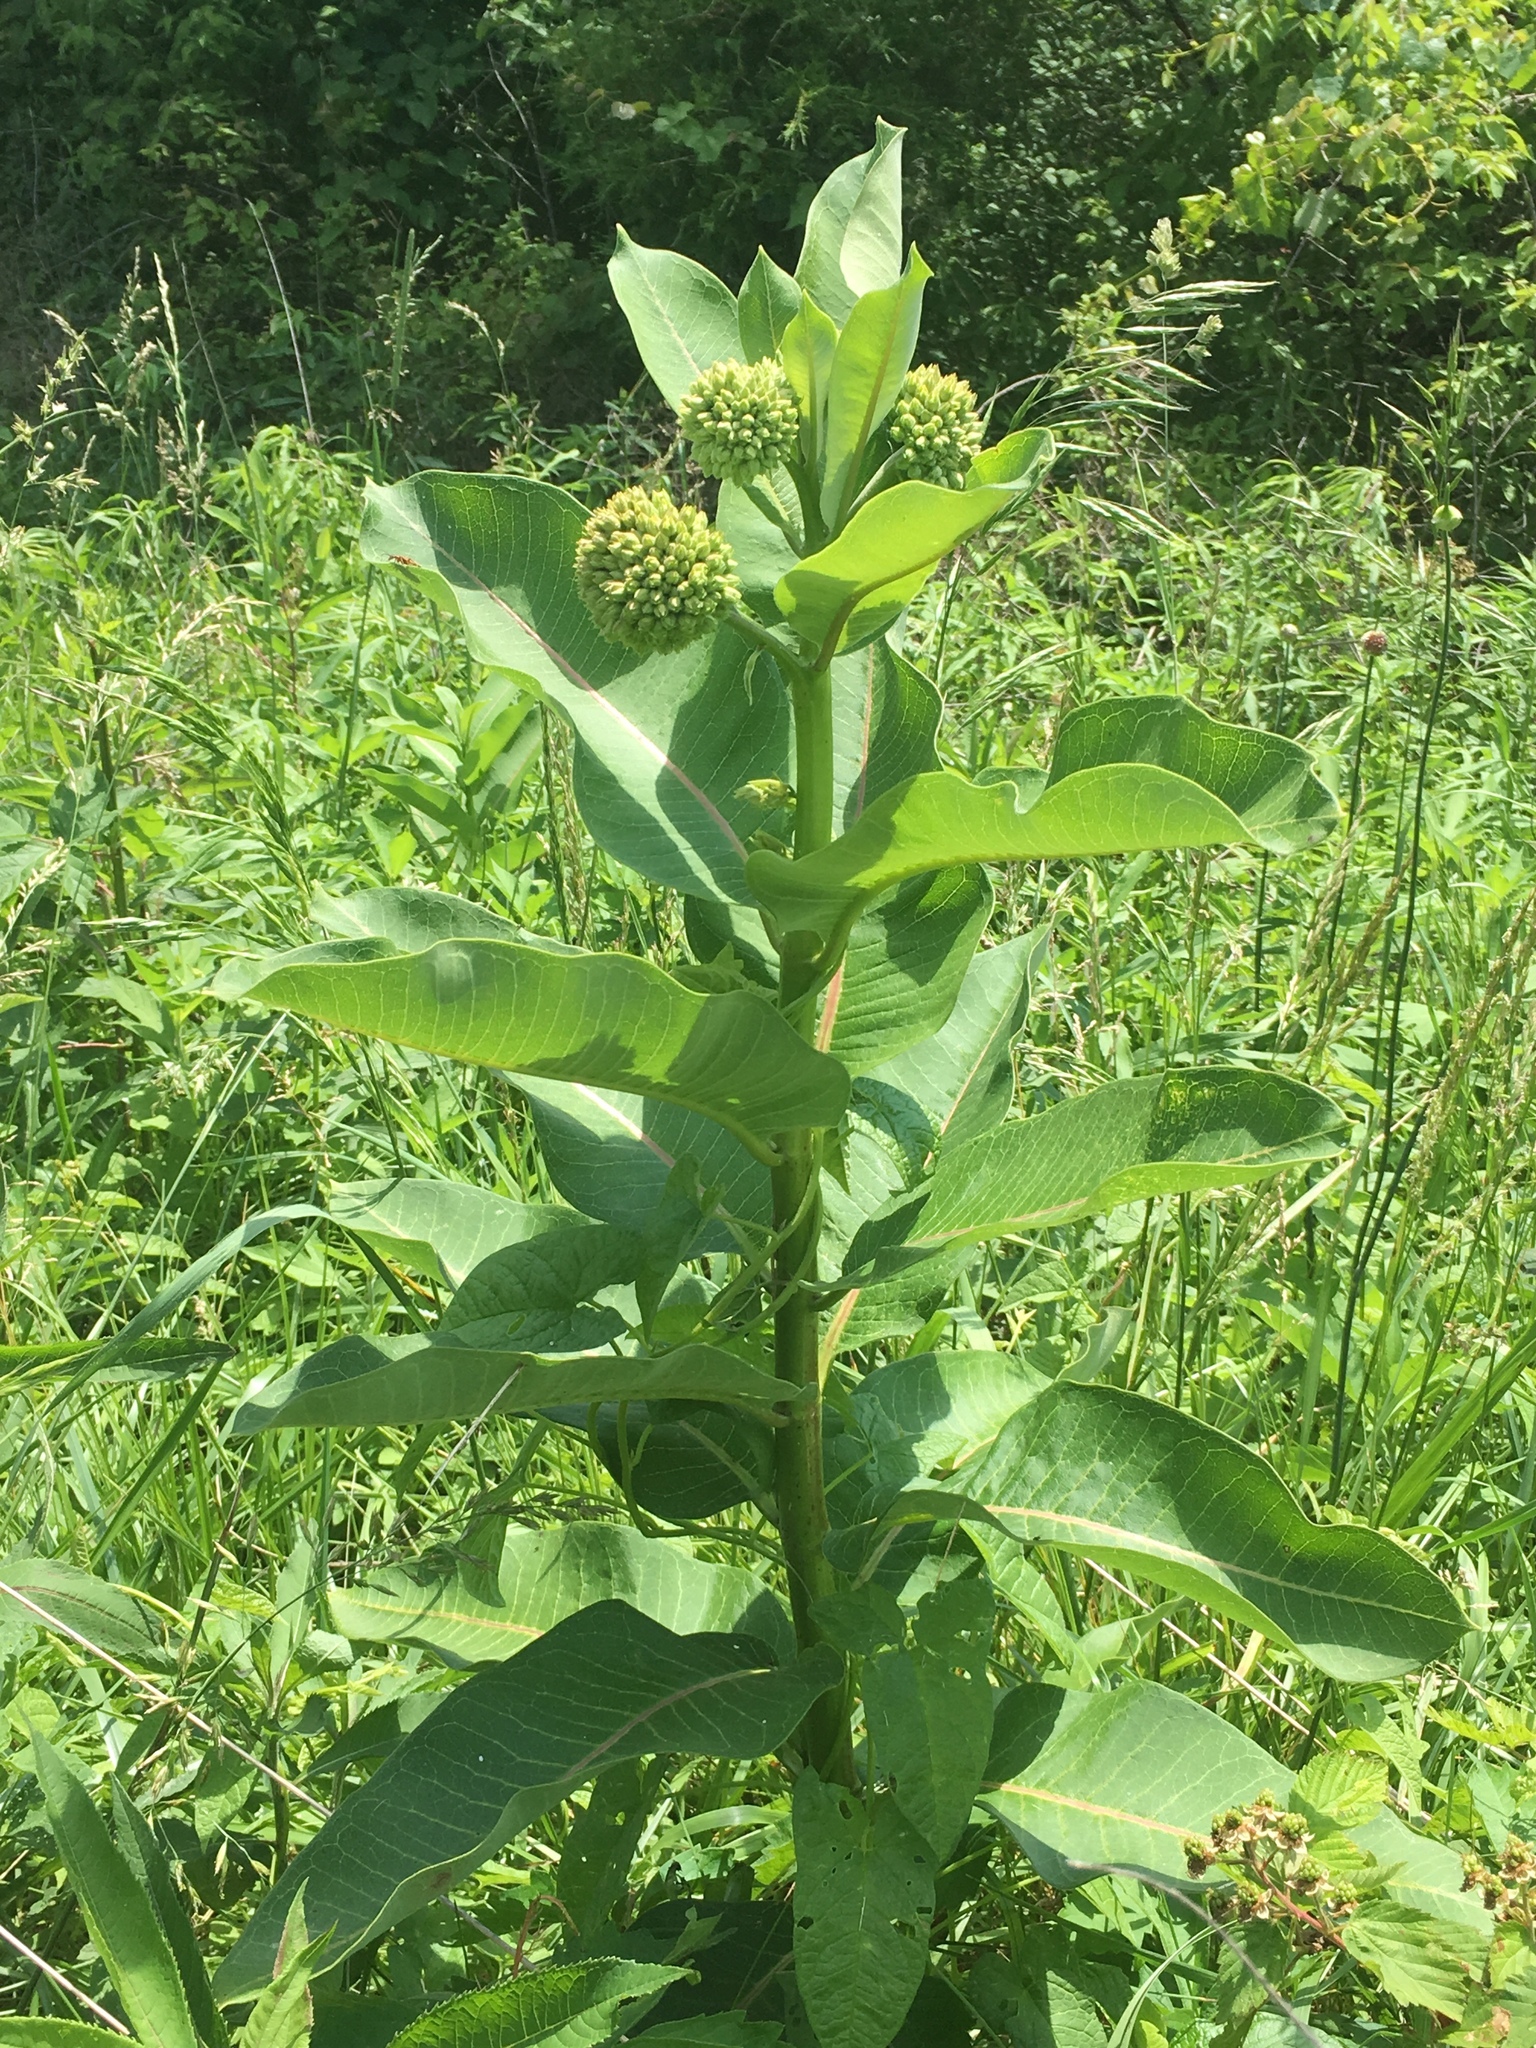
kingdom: Plantae
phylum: Tracheophyta
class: Magnoliopsida
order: Gentianales
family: Apocynaceae
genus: Asclepias
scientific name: Asclepias syriaca
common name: Common milkweed
